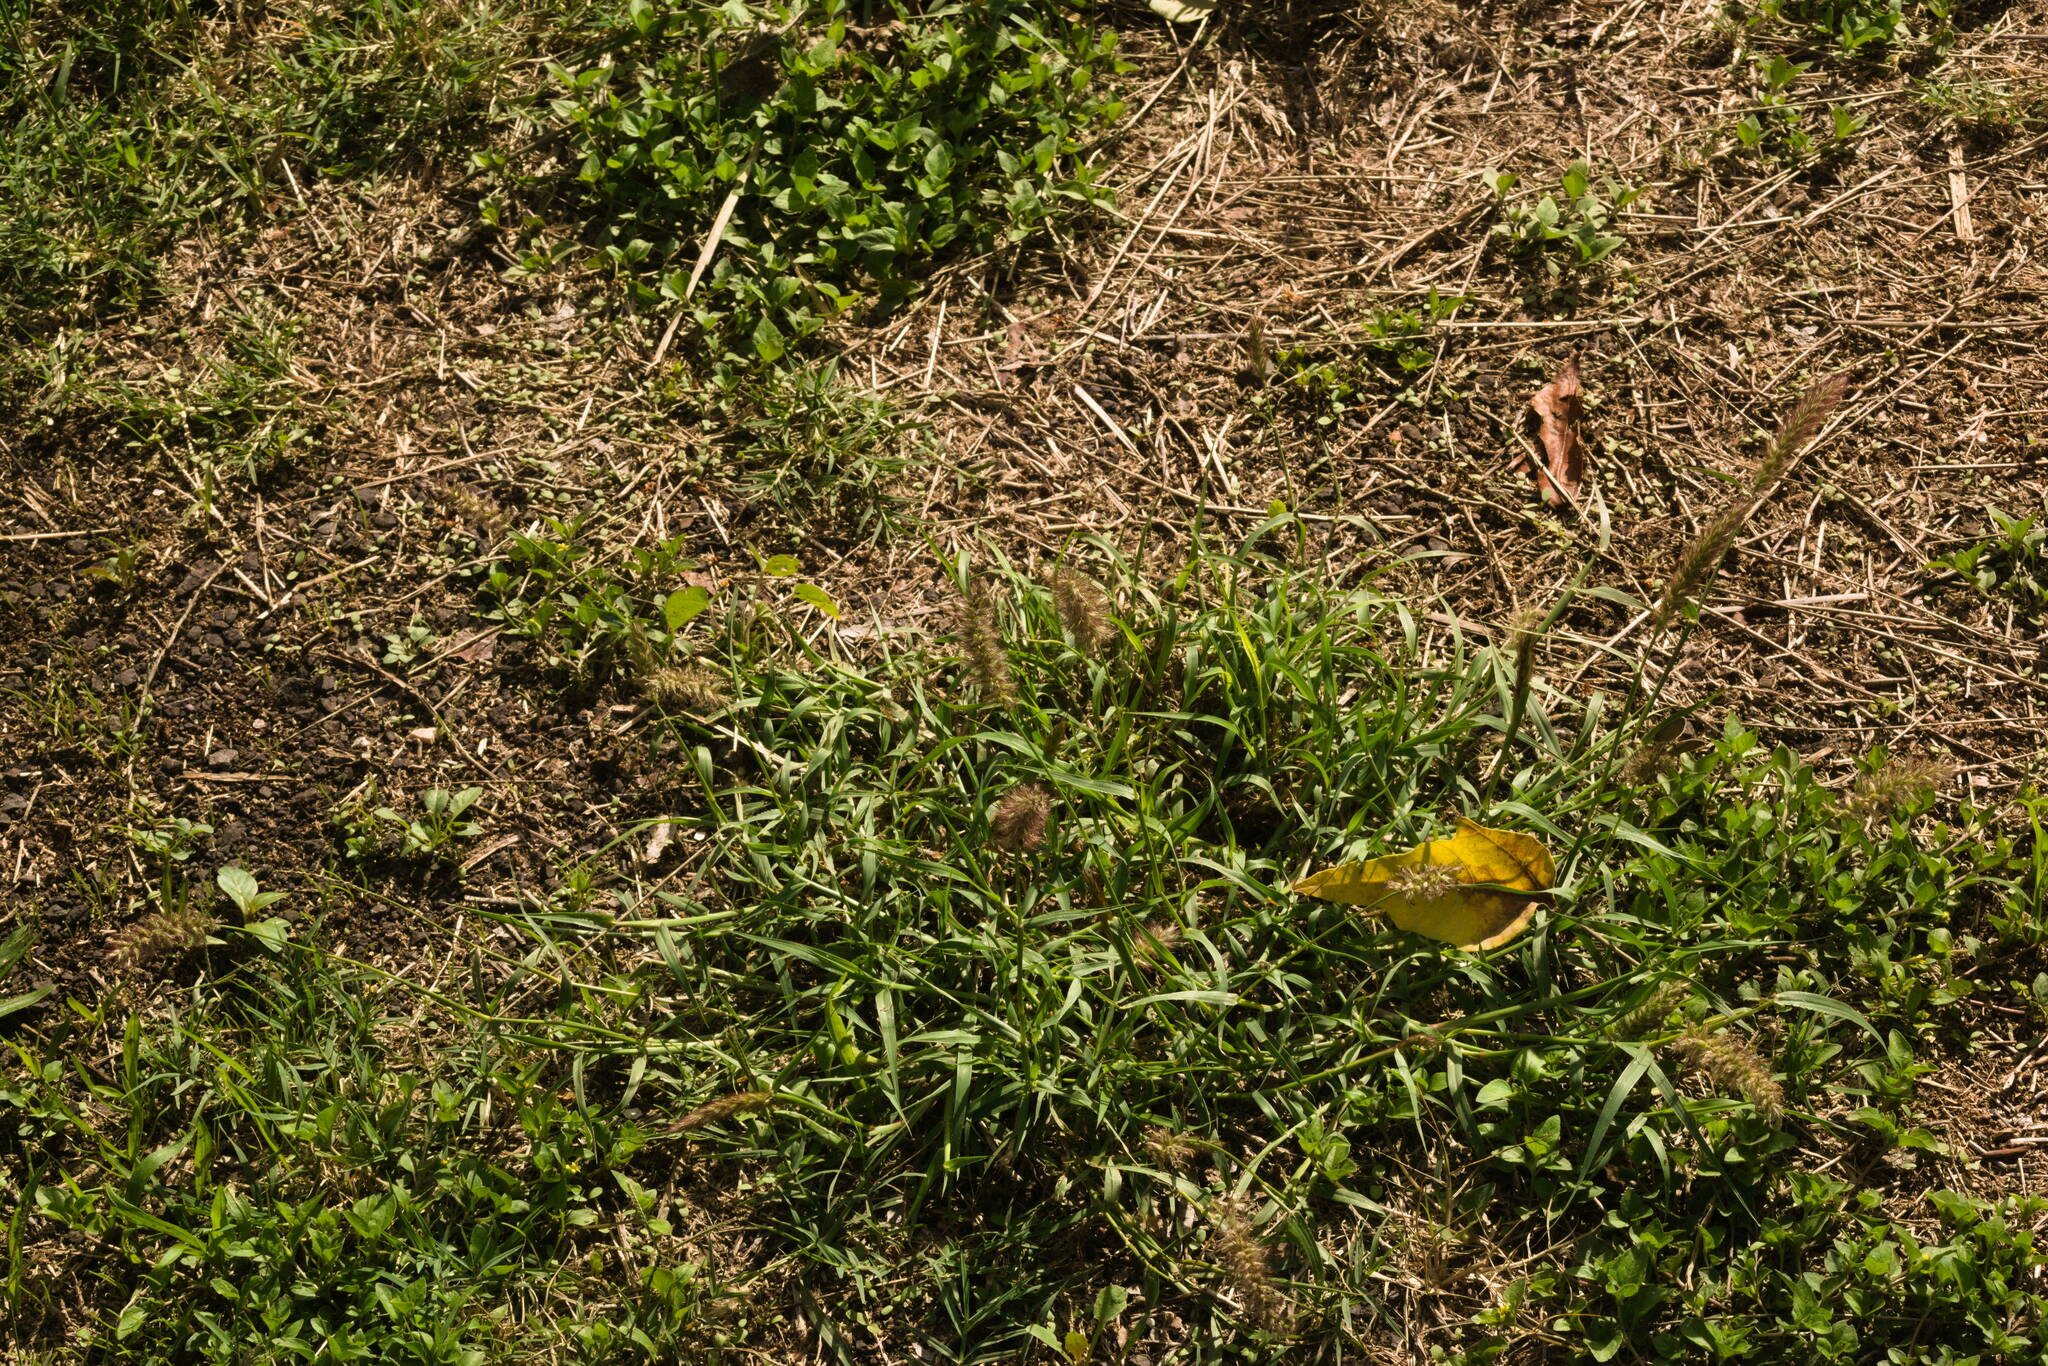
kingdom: Plantae
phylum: Tracheophyta
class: Liliopsida
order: Poales
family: Poaceae
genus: Cenchrus
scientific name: Cenchrus ciliaris
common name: Buffelgrass
